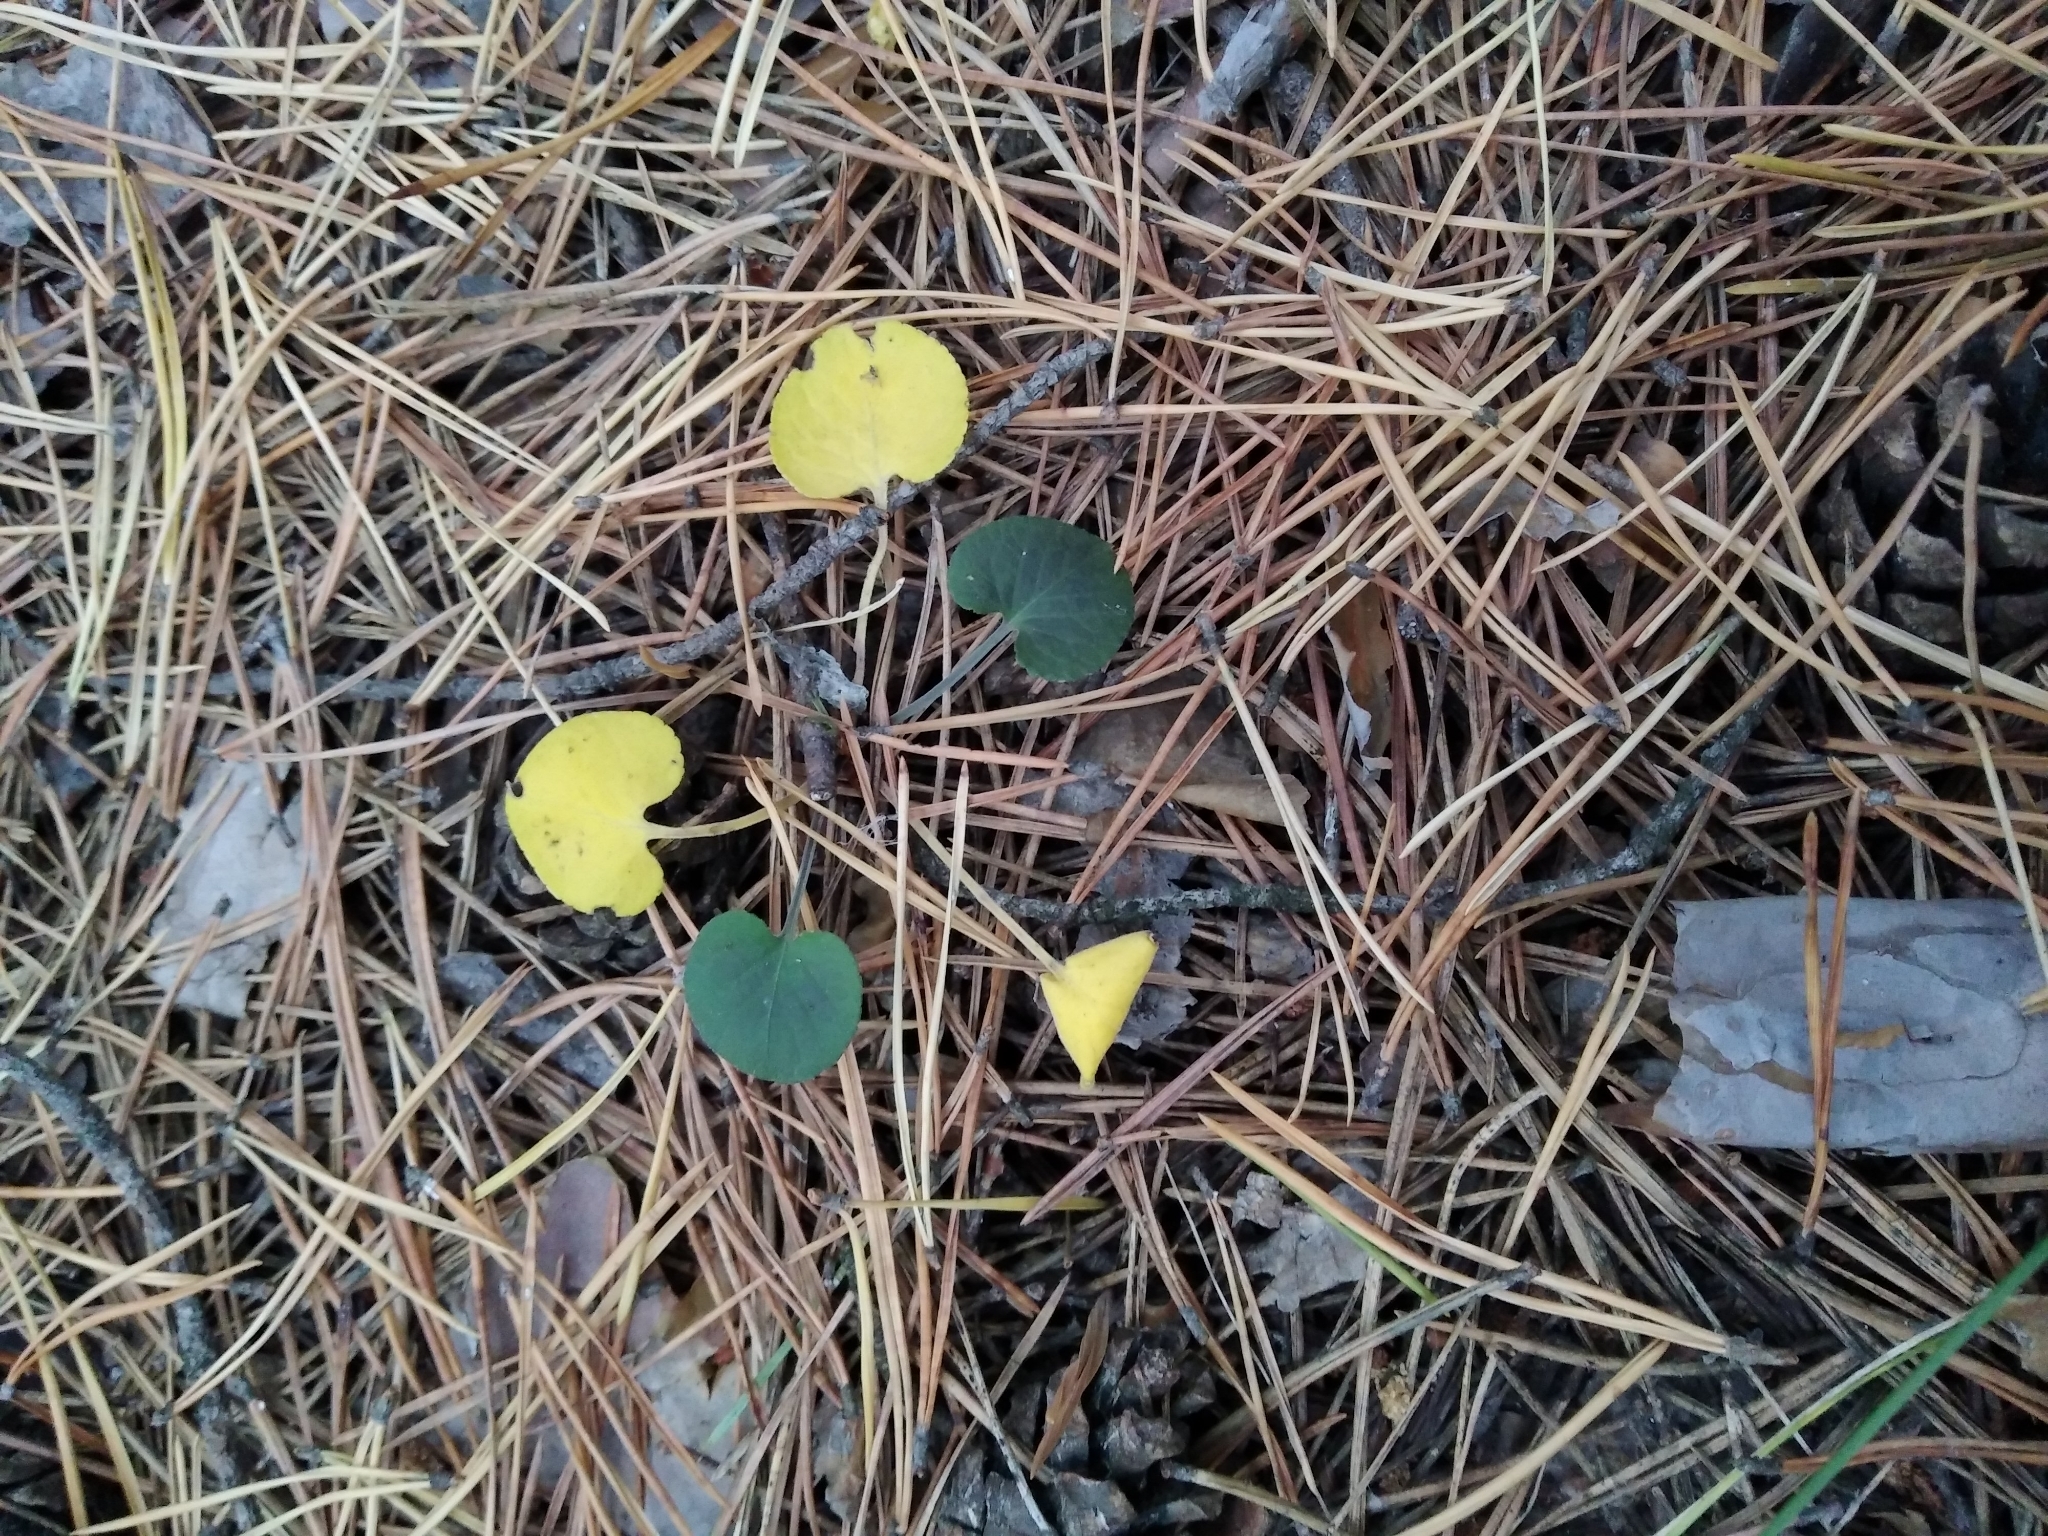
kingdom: Plantae
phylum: Tracheophyta
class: Magnoliopsida
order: Malpighiales
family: Violaceae
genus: Viola
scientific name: Viola rupestris
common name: Teesdale violet
